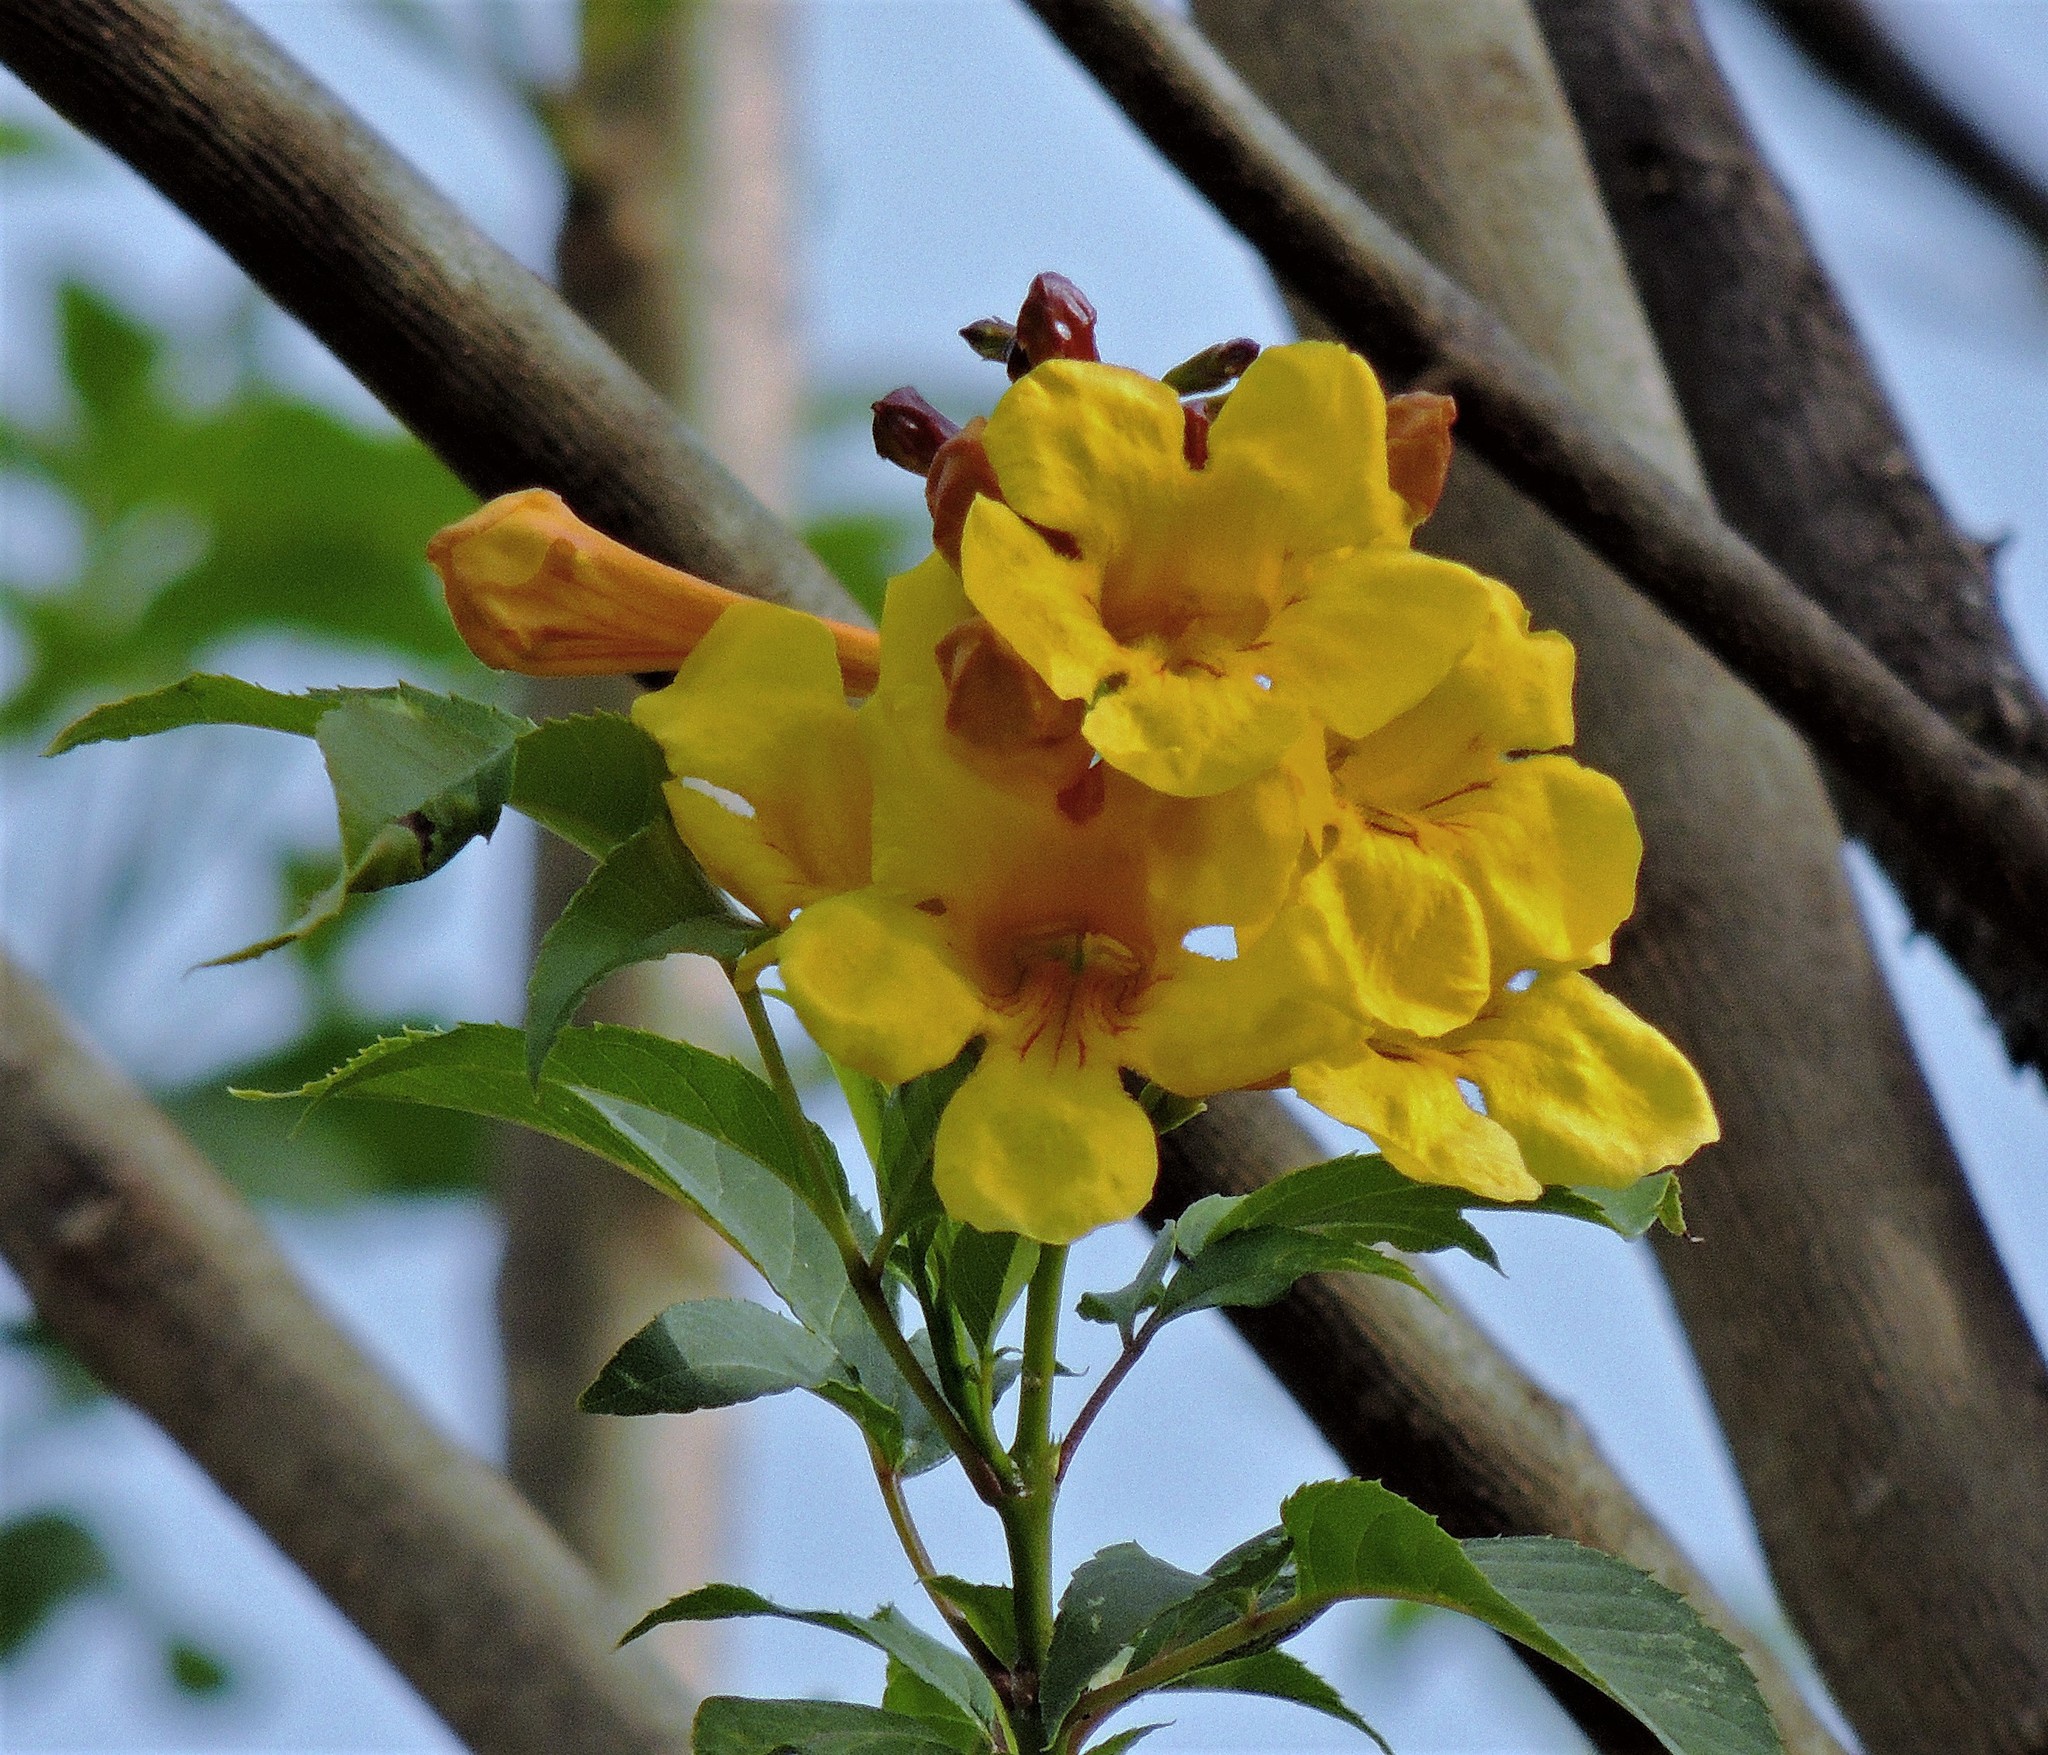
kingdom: Plantae
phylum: Tracheophyta
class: Magnoliopsida
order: Lamiales
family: Bignoniaceae
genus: Tecoma
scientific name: Tecoma stans
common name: Yellow trumpetbush
